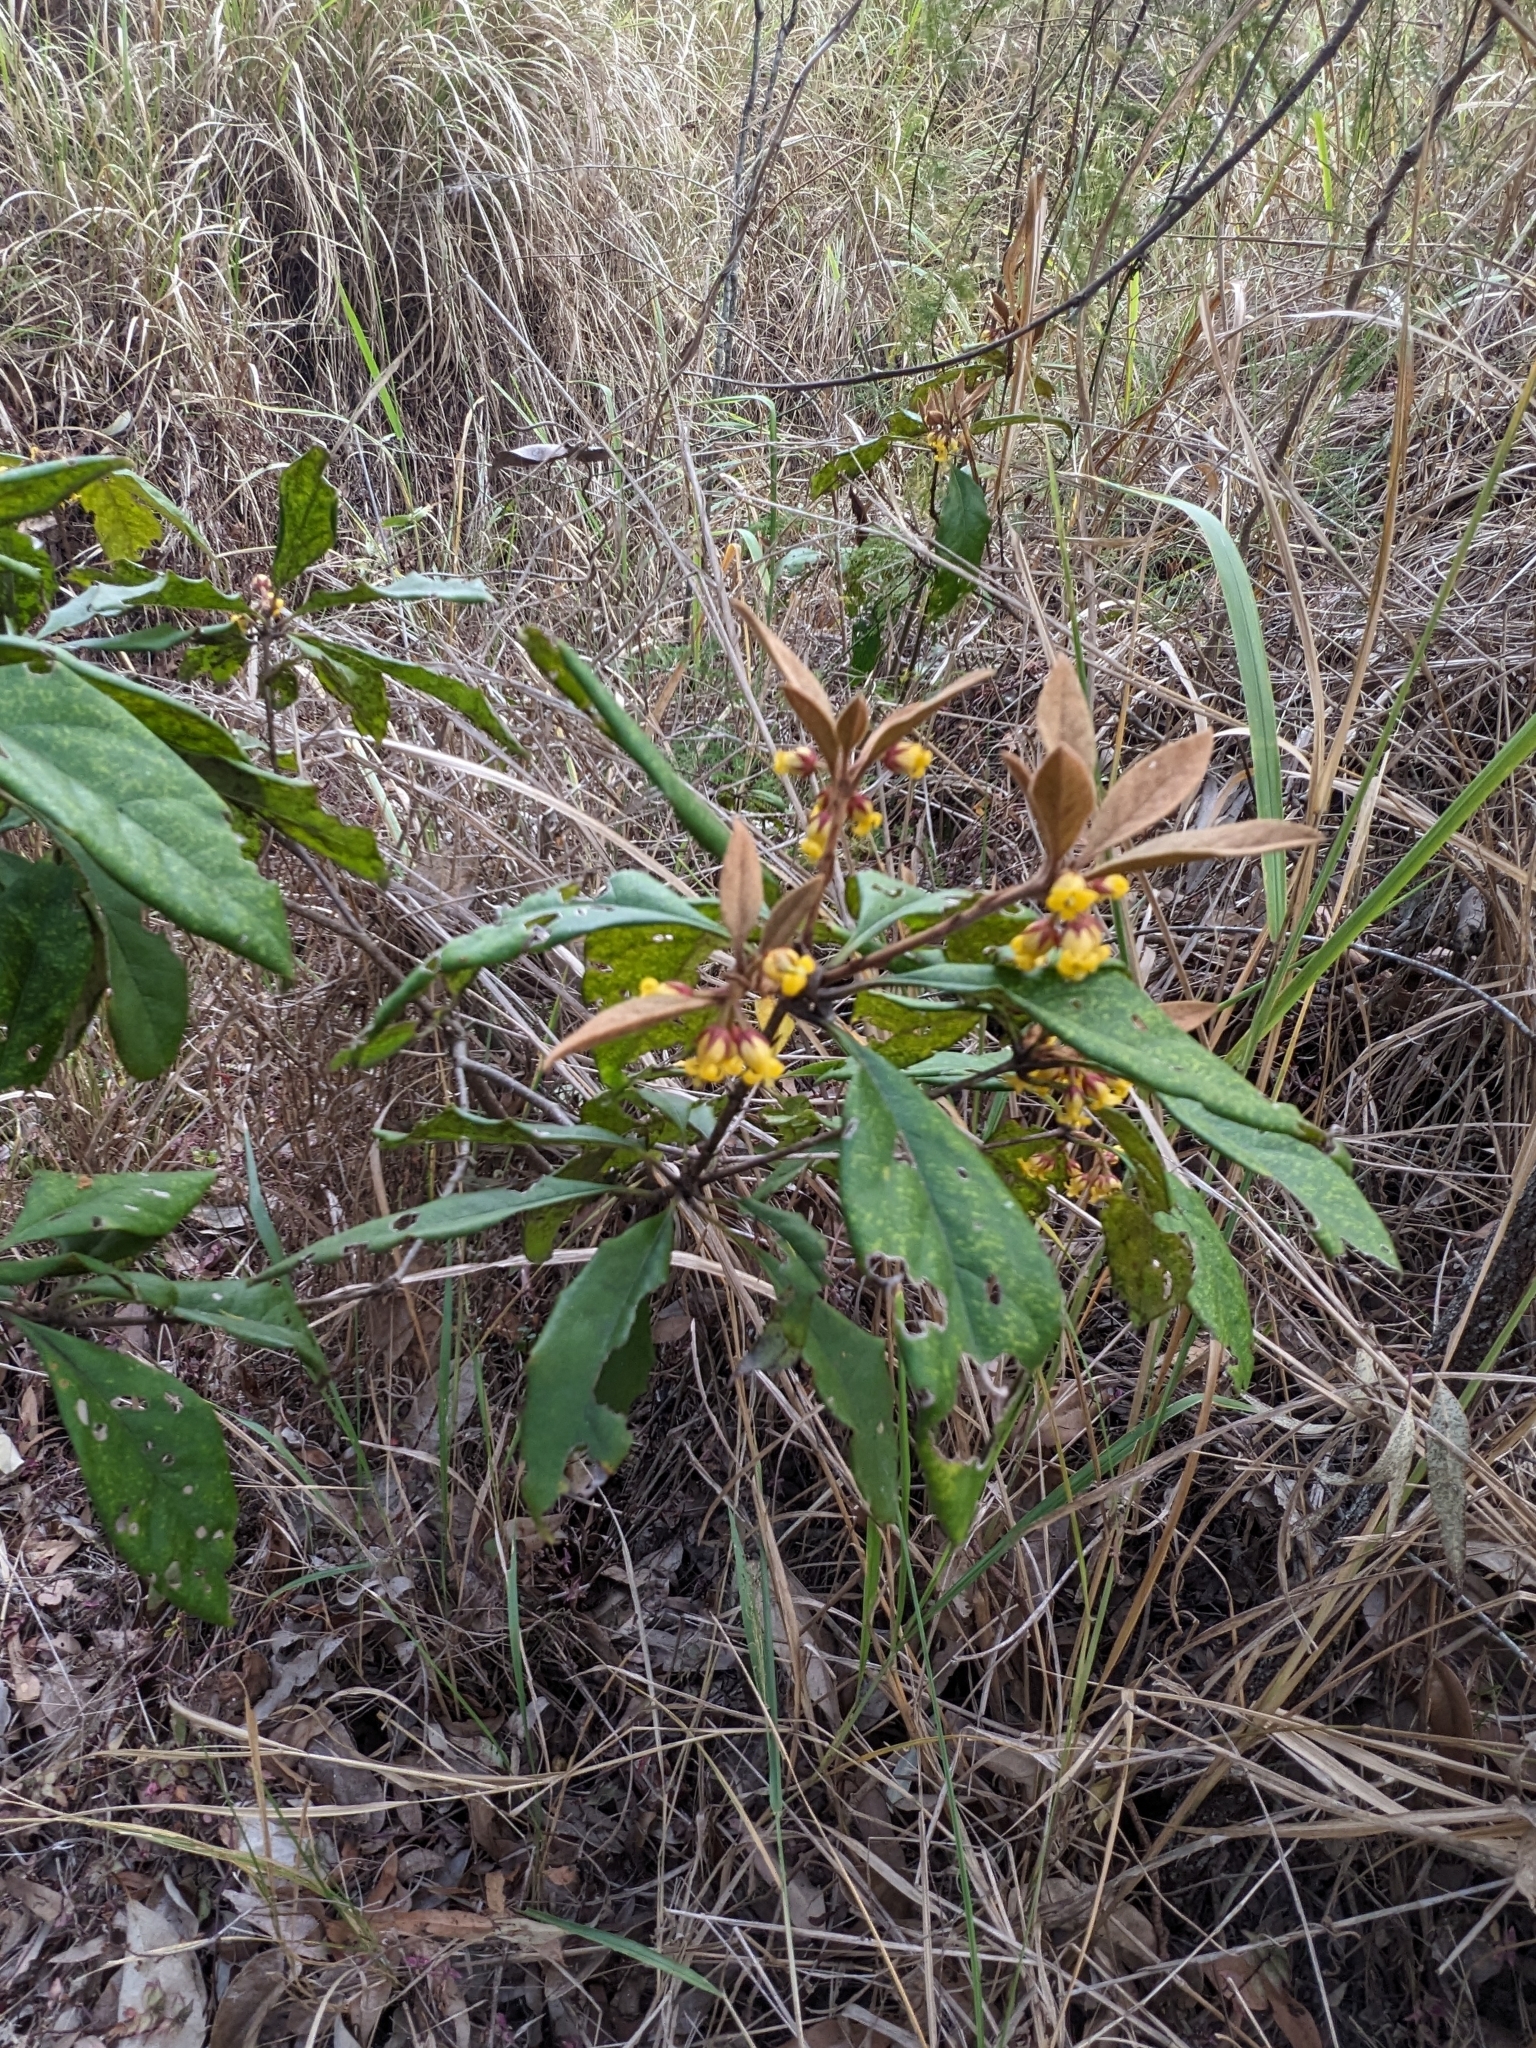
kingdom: Plantae
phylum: Tracheophyta
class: Magnoliopsida
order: Apiales
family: Pittosporaceae
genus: Pittosporum
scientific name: Pittosporum revolutum
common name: Brisbane-laurel
